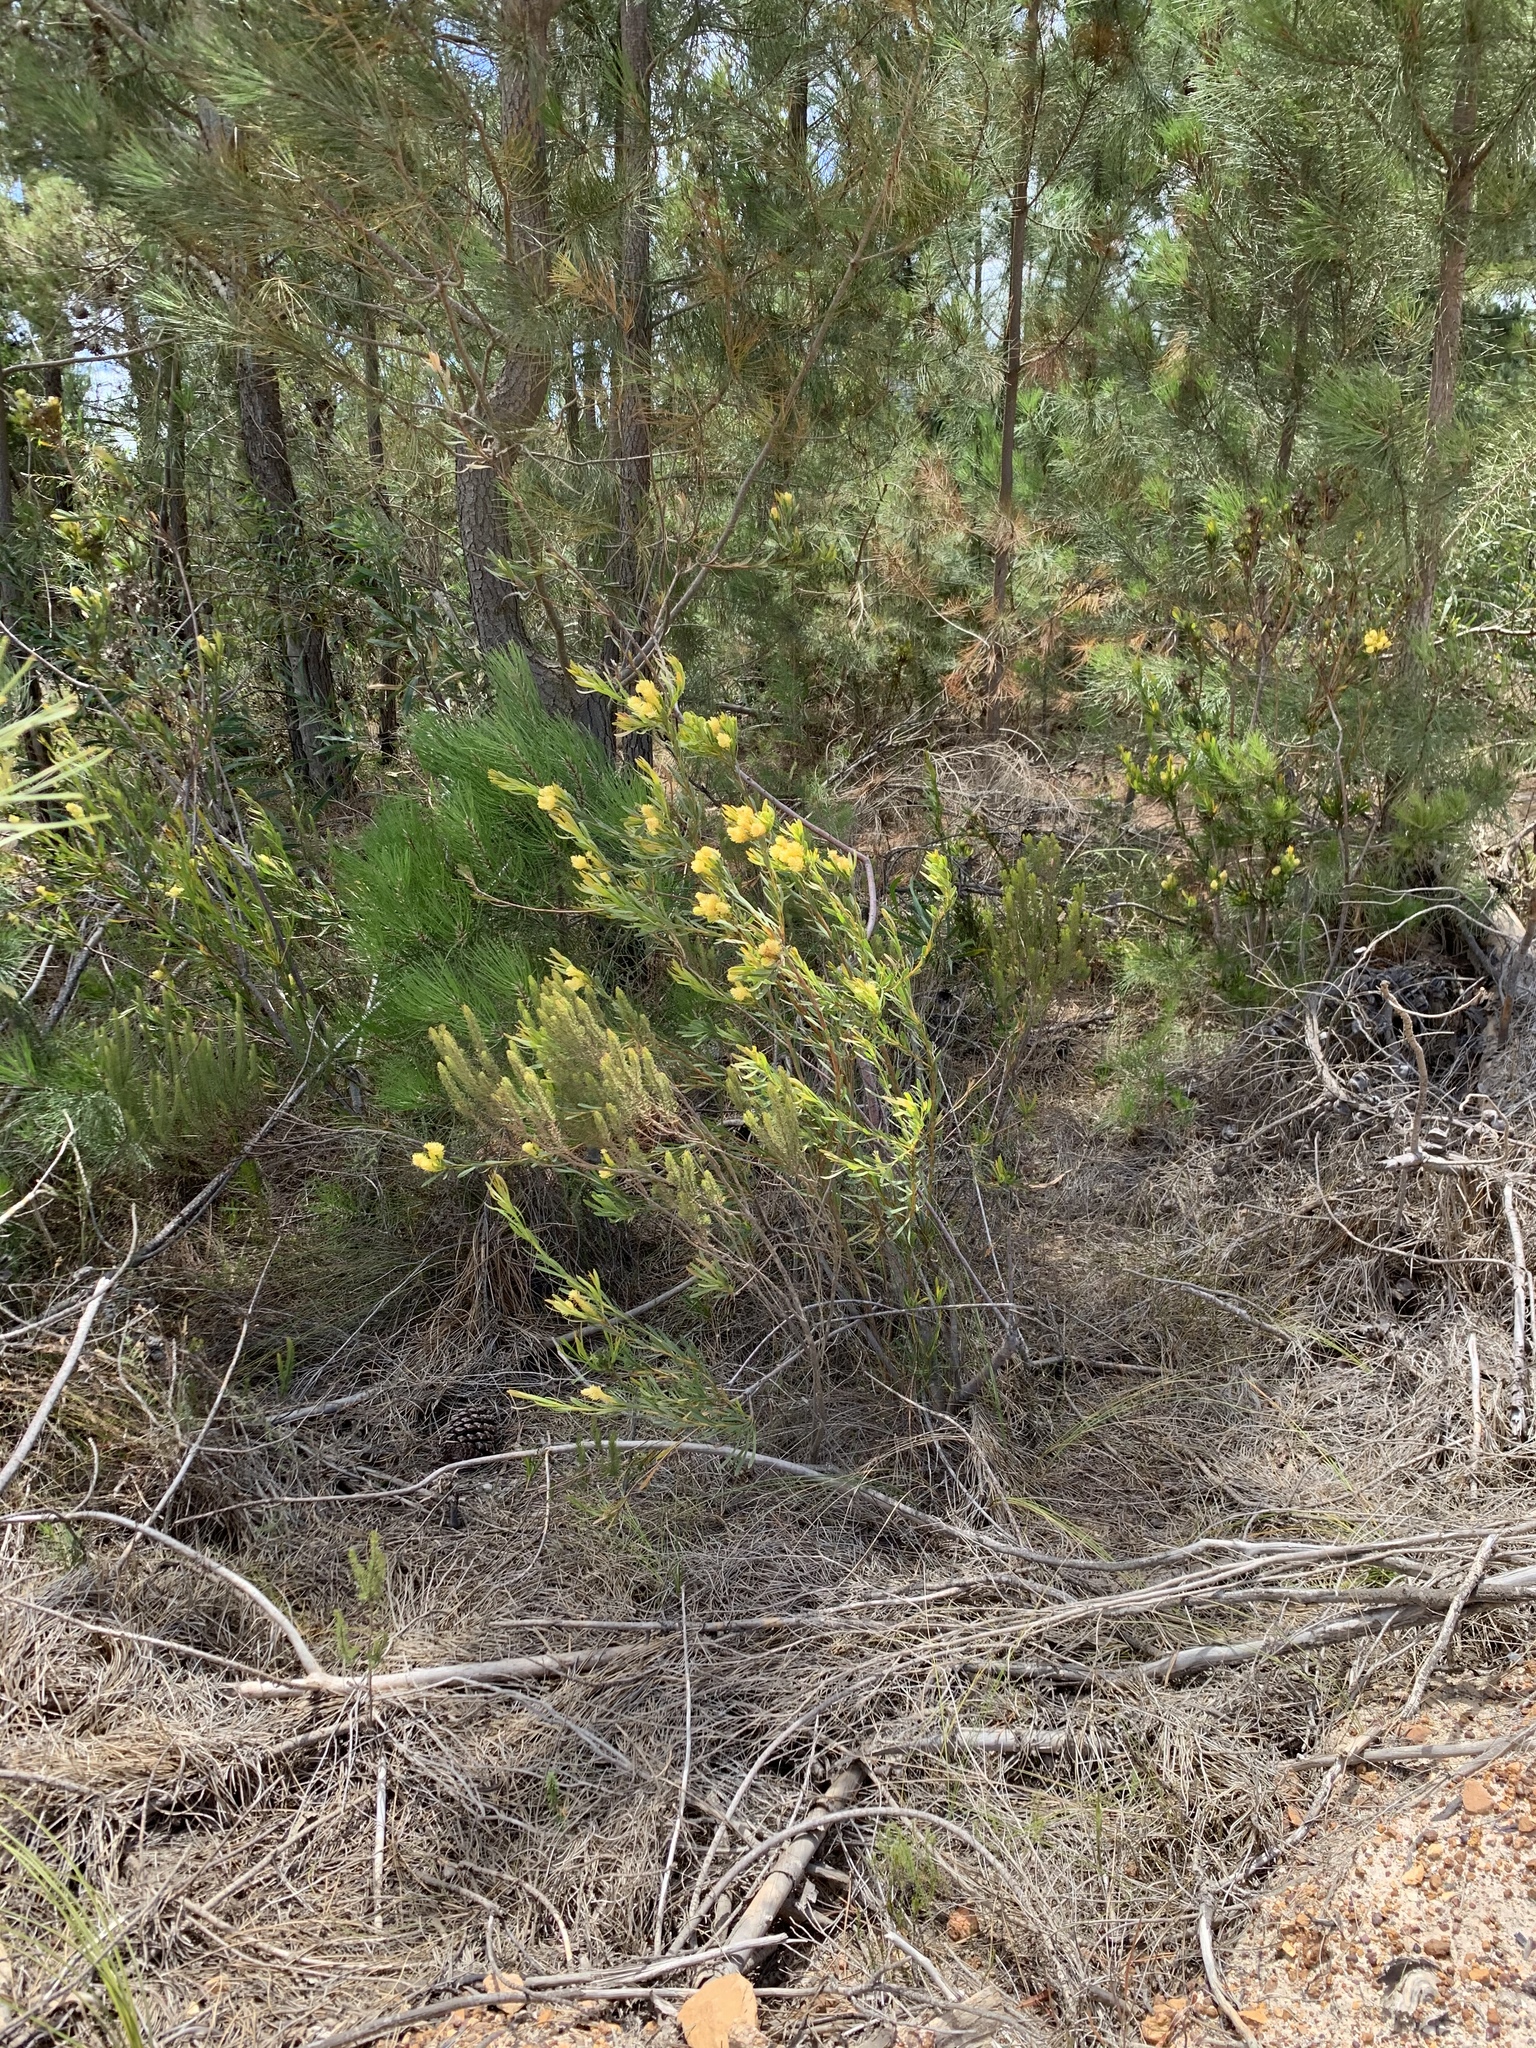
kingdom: Plantae
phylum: Tracheophyta
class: Magnoliopsida
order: Proteales
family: Proteaceae
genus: Aulax
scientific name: Aulax umbellata
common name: Broad-leaf featherbush
